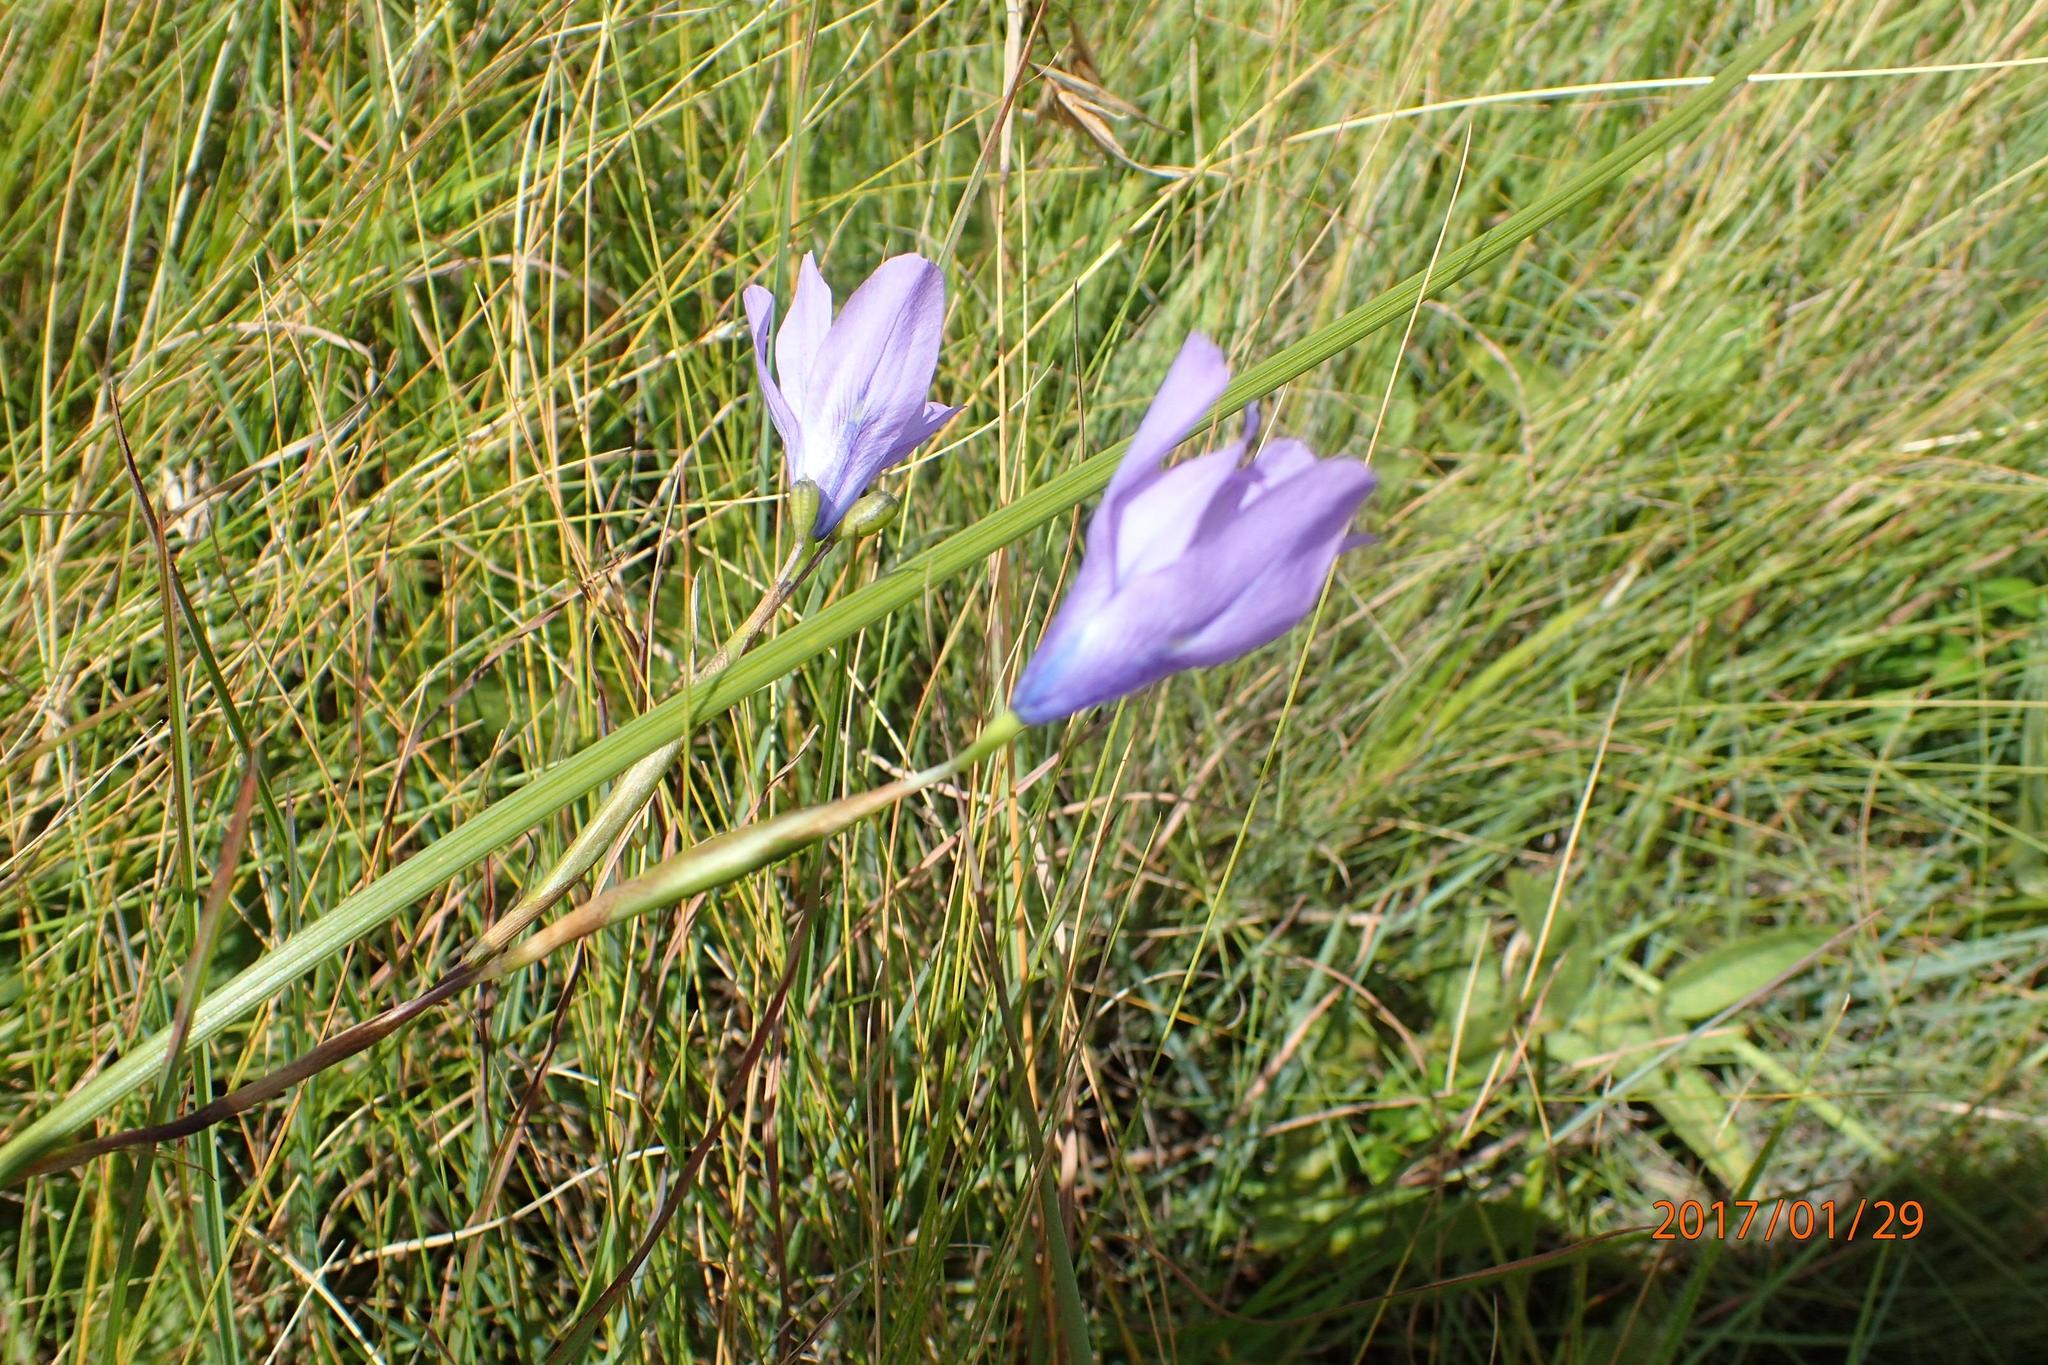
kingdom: Plantae
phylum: Tracheophyta
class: Liliopsida
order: Asparagales
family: Iridaceae
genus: Moraea
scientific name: Moraea inclinata
